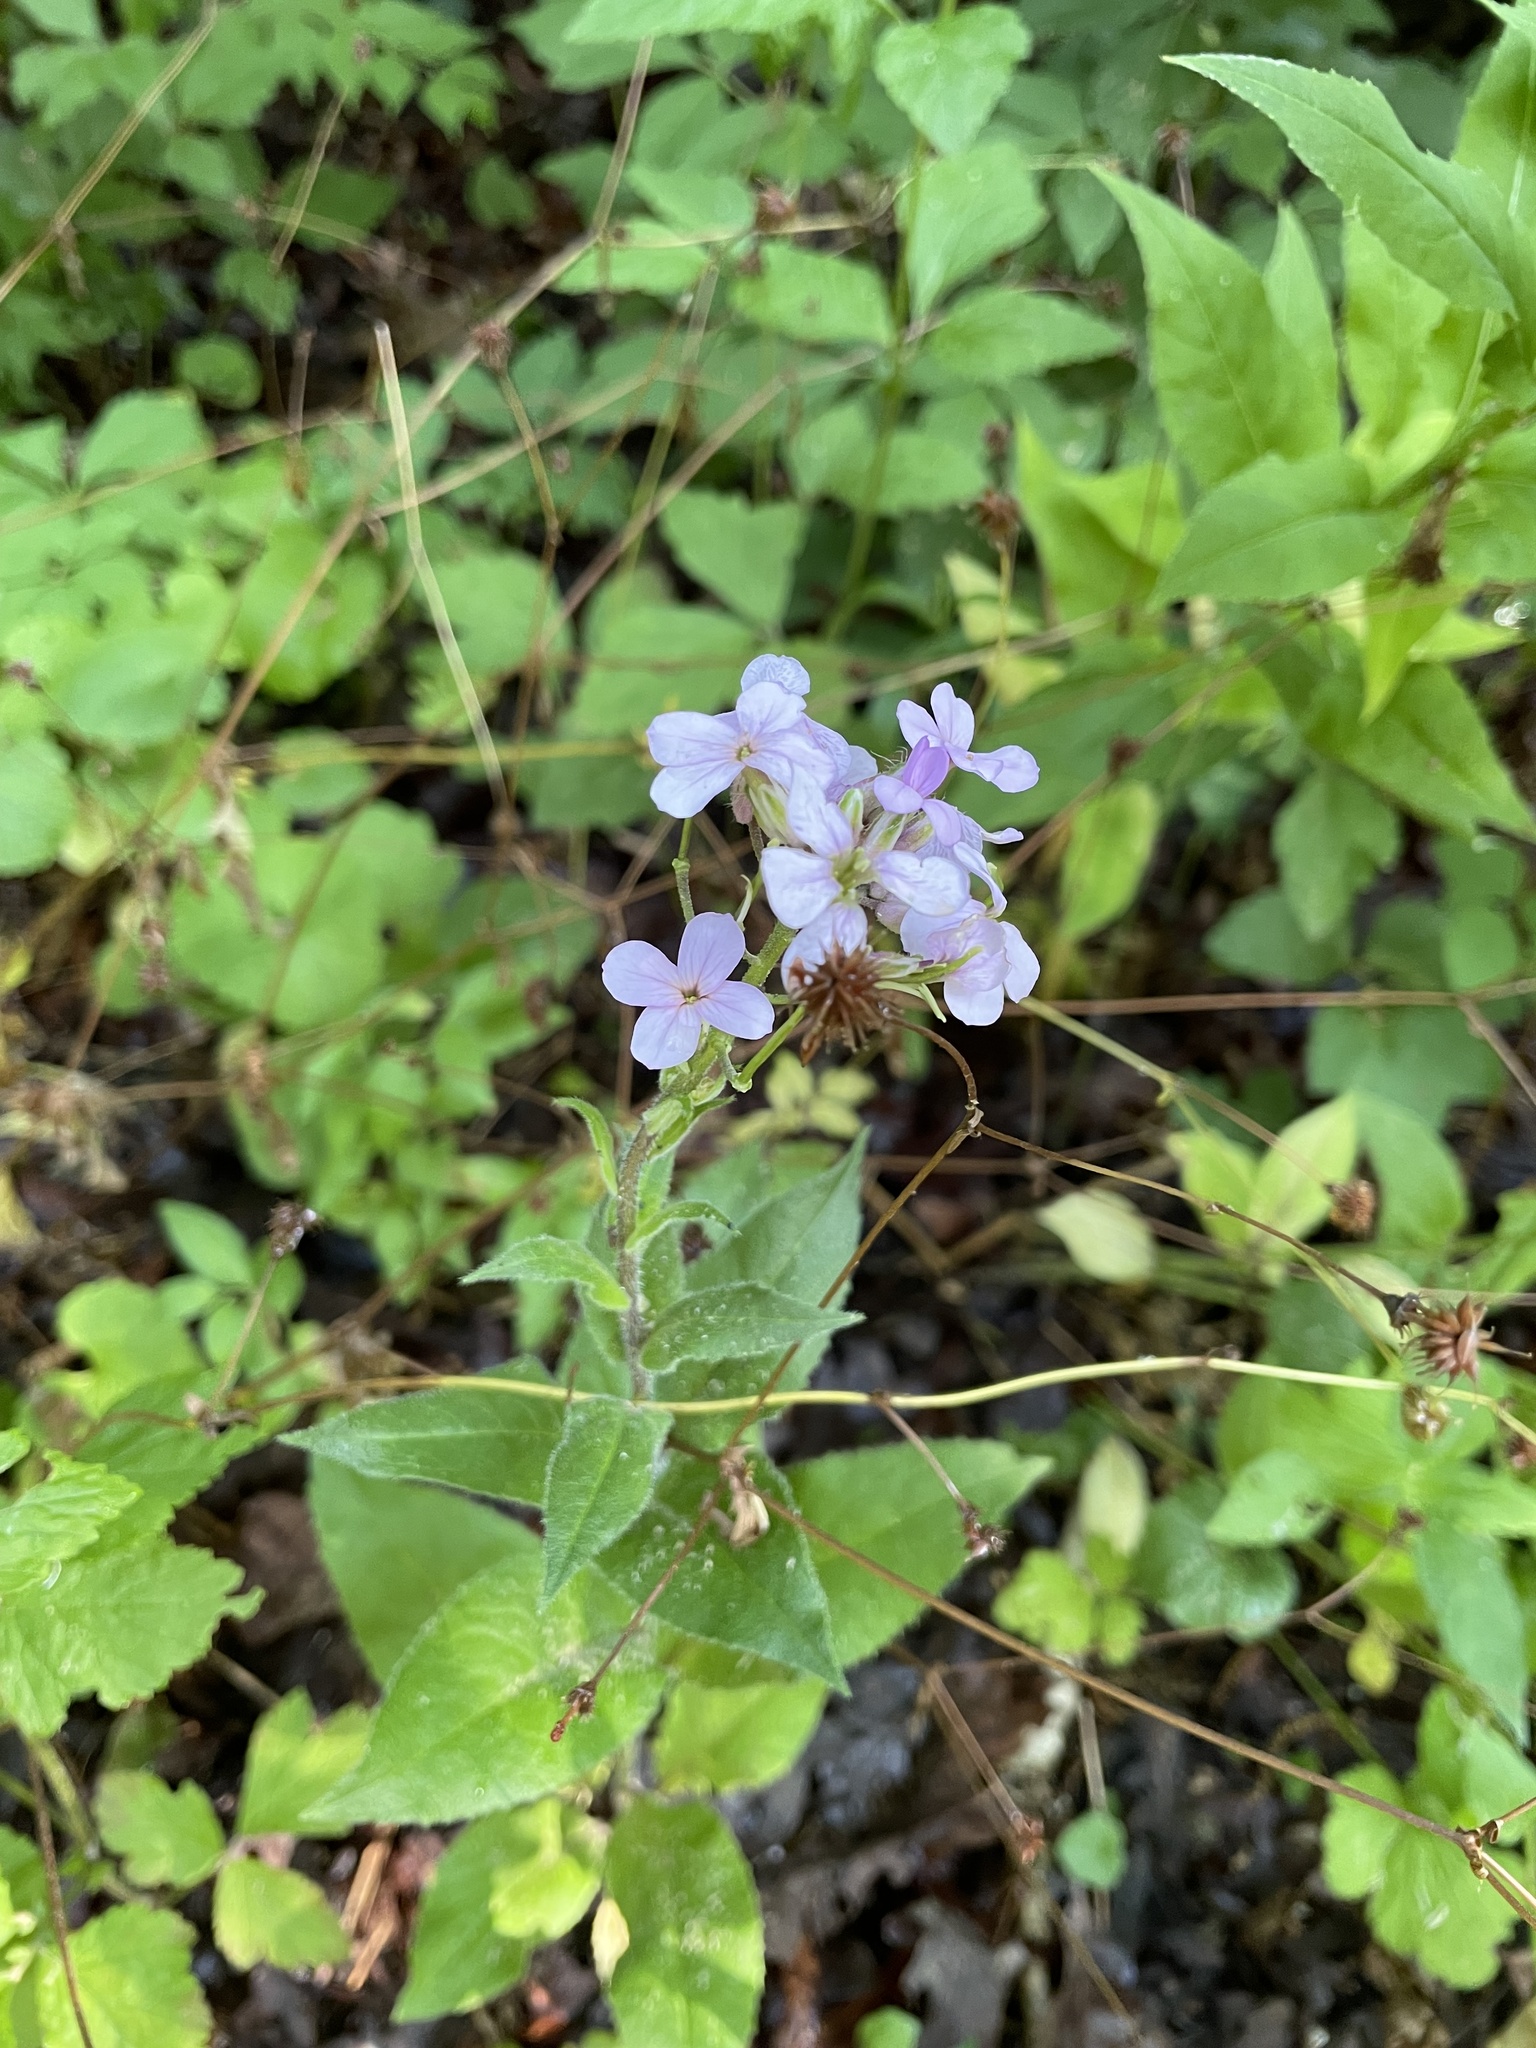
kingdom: Plantae
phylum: Tracheophyta
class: Magnoliopsida
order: Brassicales
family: Brassicaceae
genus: Hesperis
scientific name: Hesperis matronalis
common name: Dame's-violet
